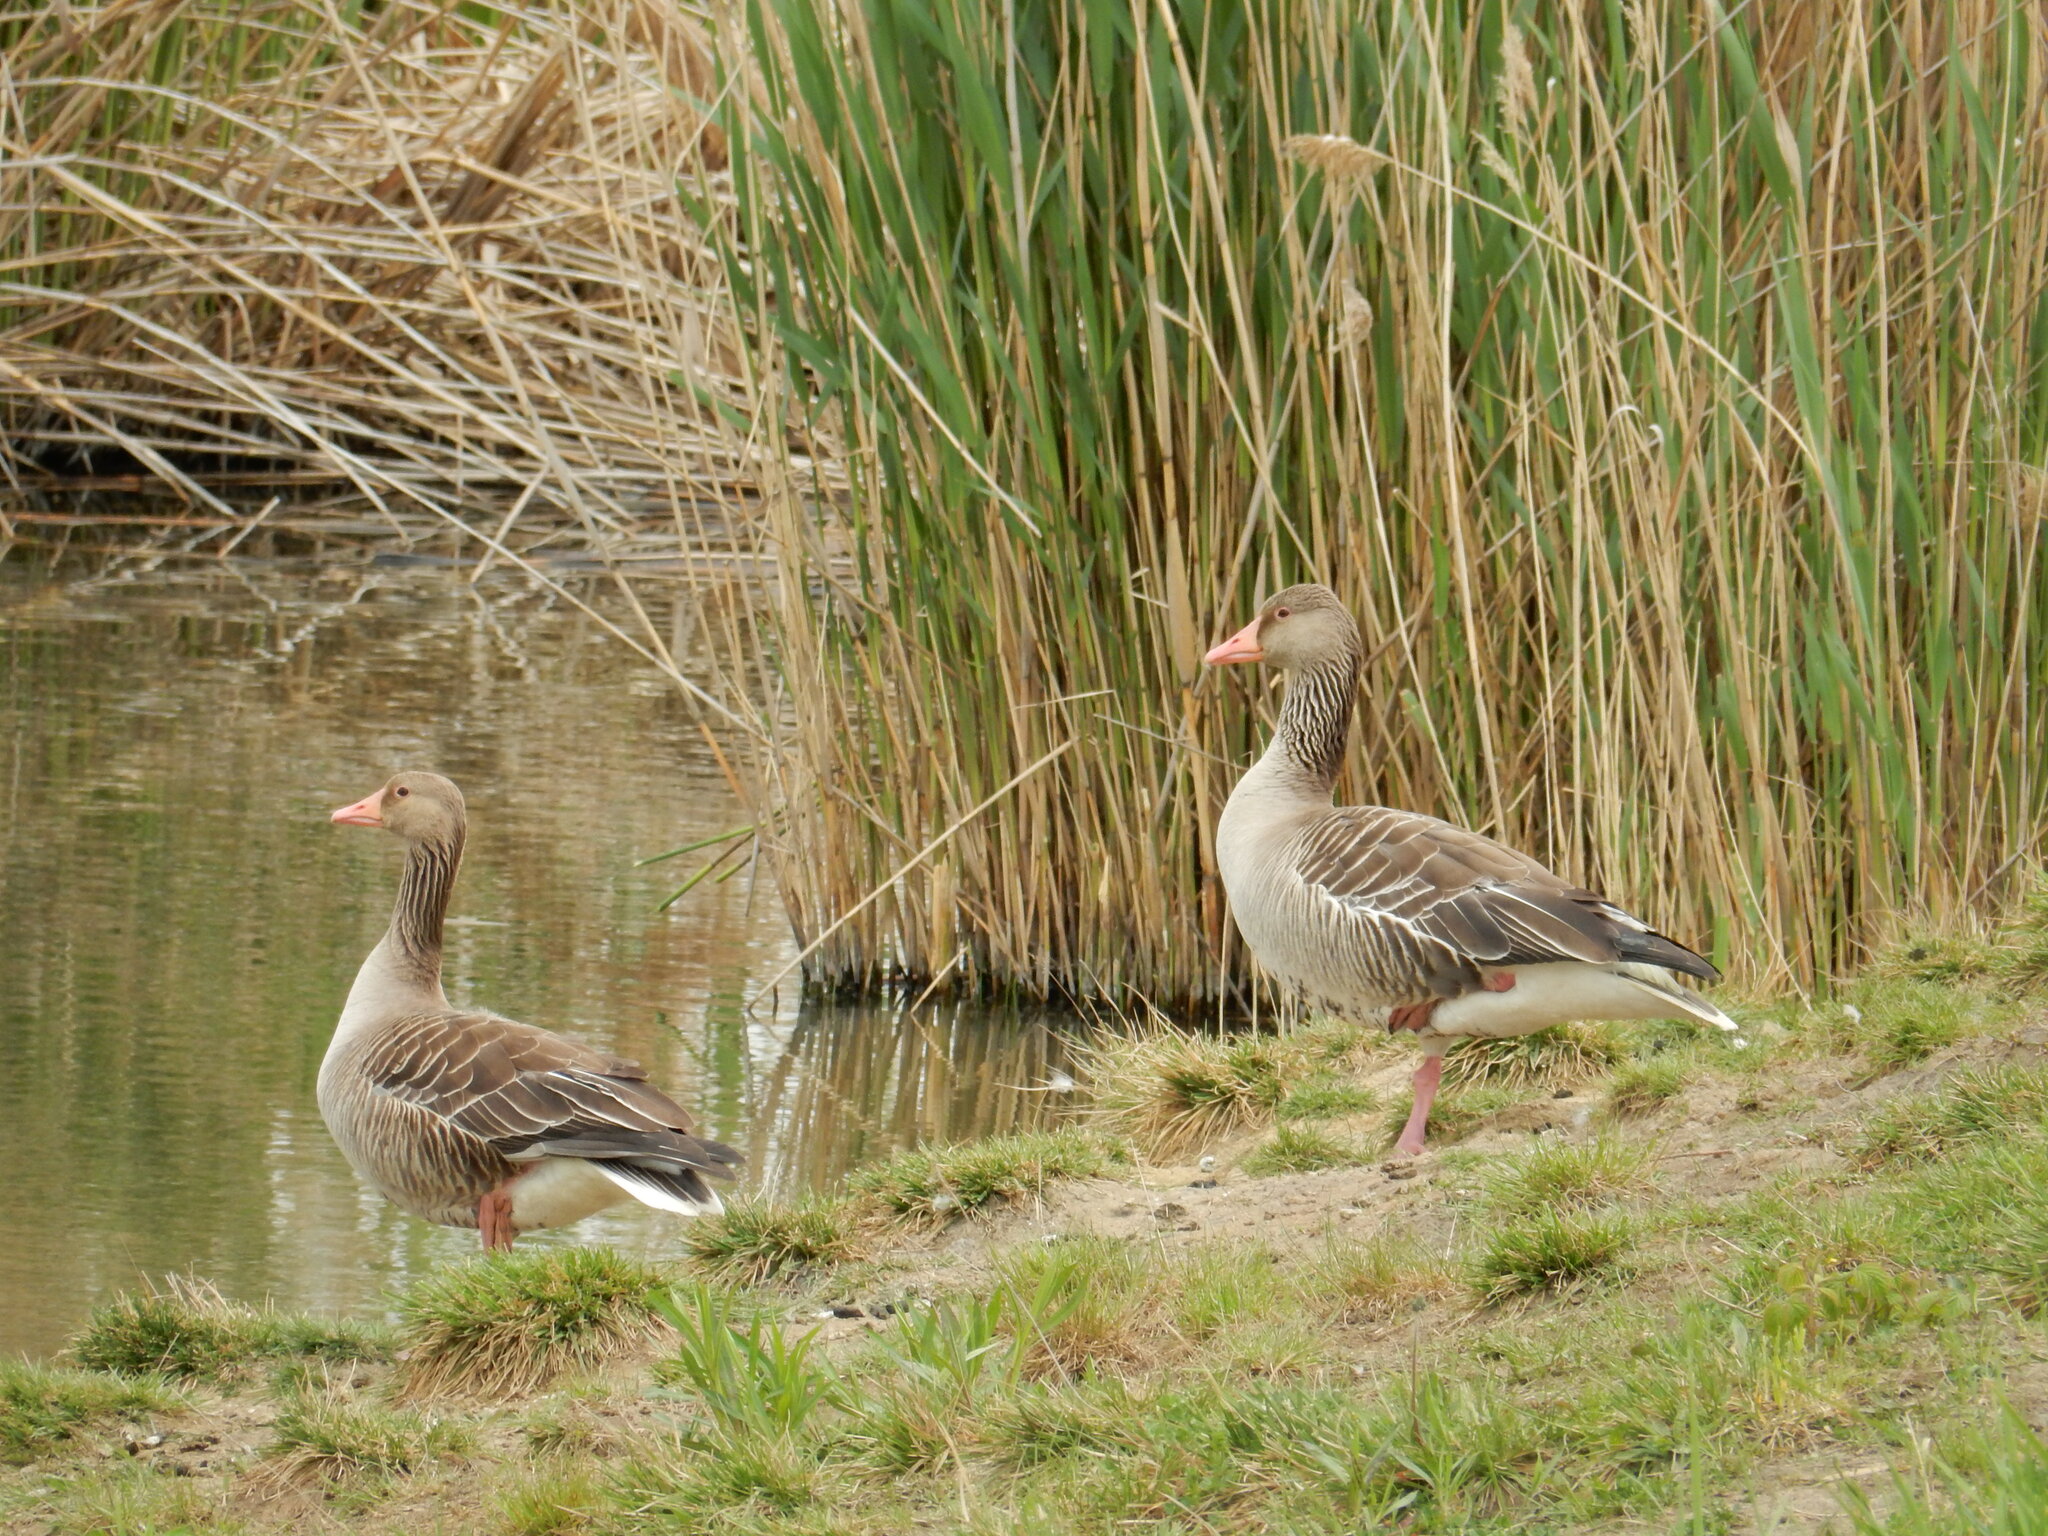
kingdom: Animalia
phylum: Chordata
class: Aves
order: Anseriformes
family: Anatidae
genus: Anser
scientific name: Anser anser
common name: Greylag goose
